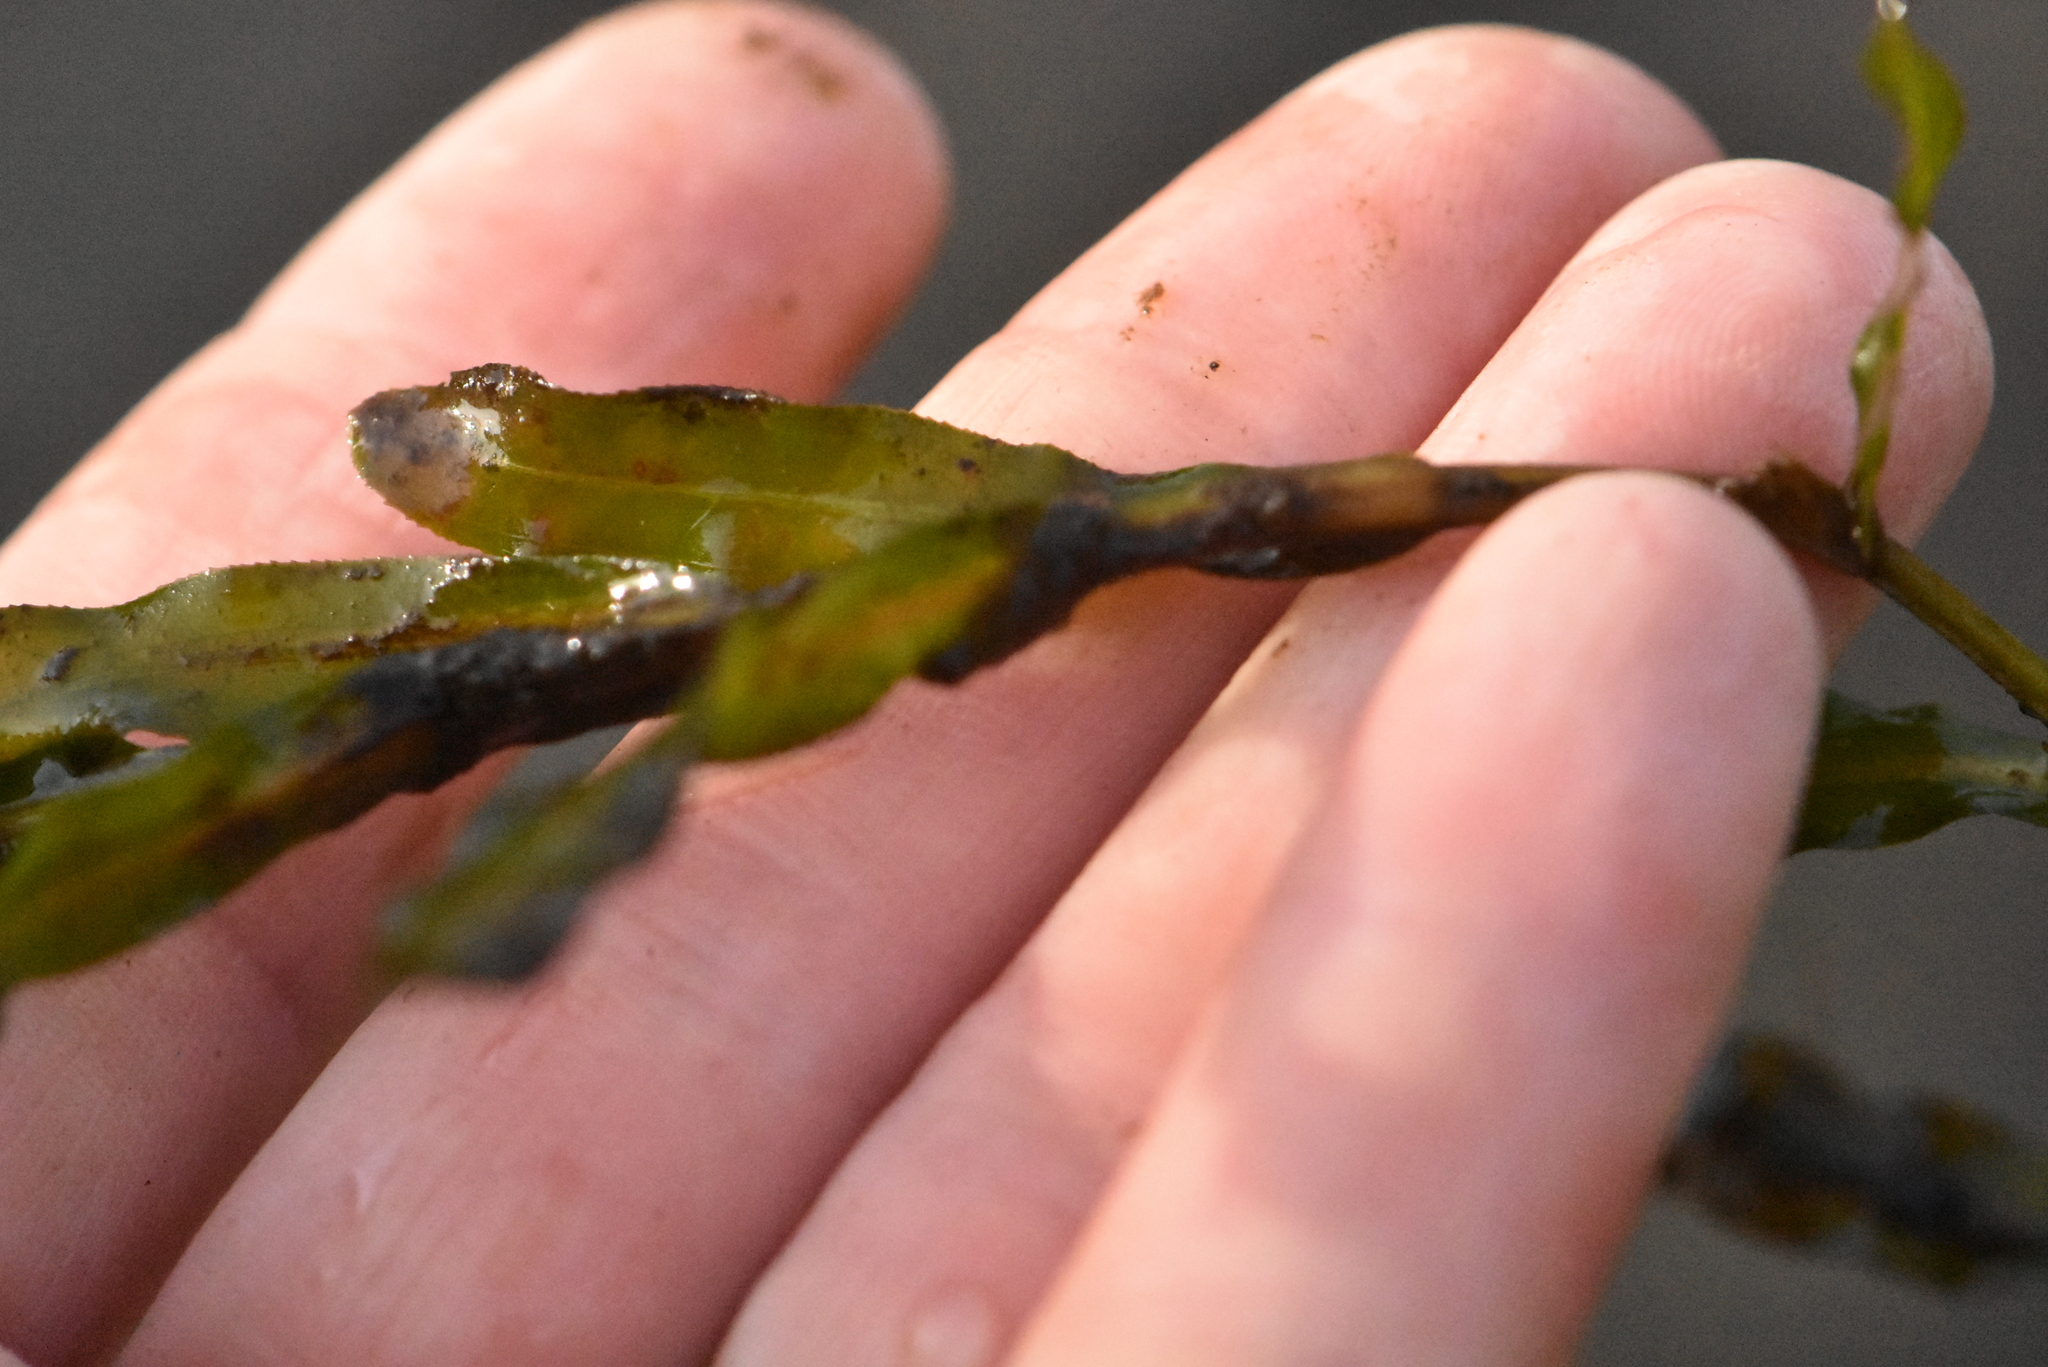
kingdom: Plantae
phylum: Tracheophyta
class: Liliopsida
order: Alismatales
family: Potamogetonaceae
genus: Potamogeton
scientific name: Potamogeton crispus
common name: Curled pondweed
